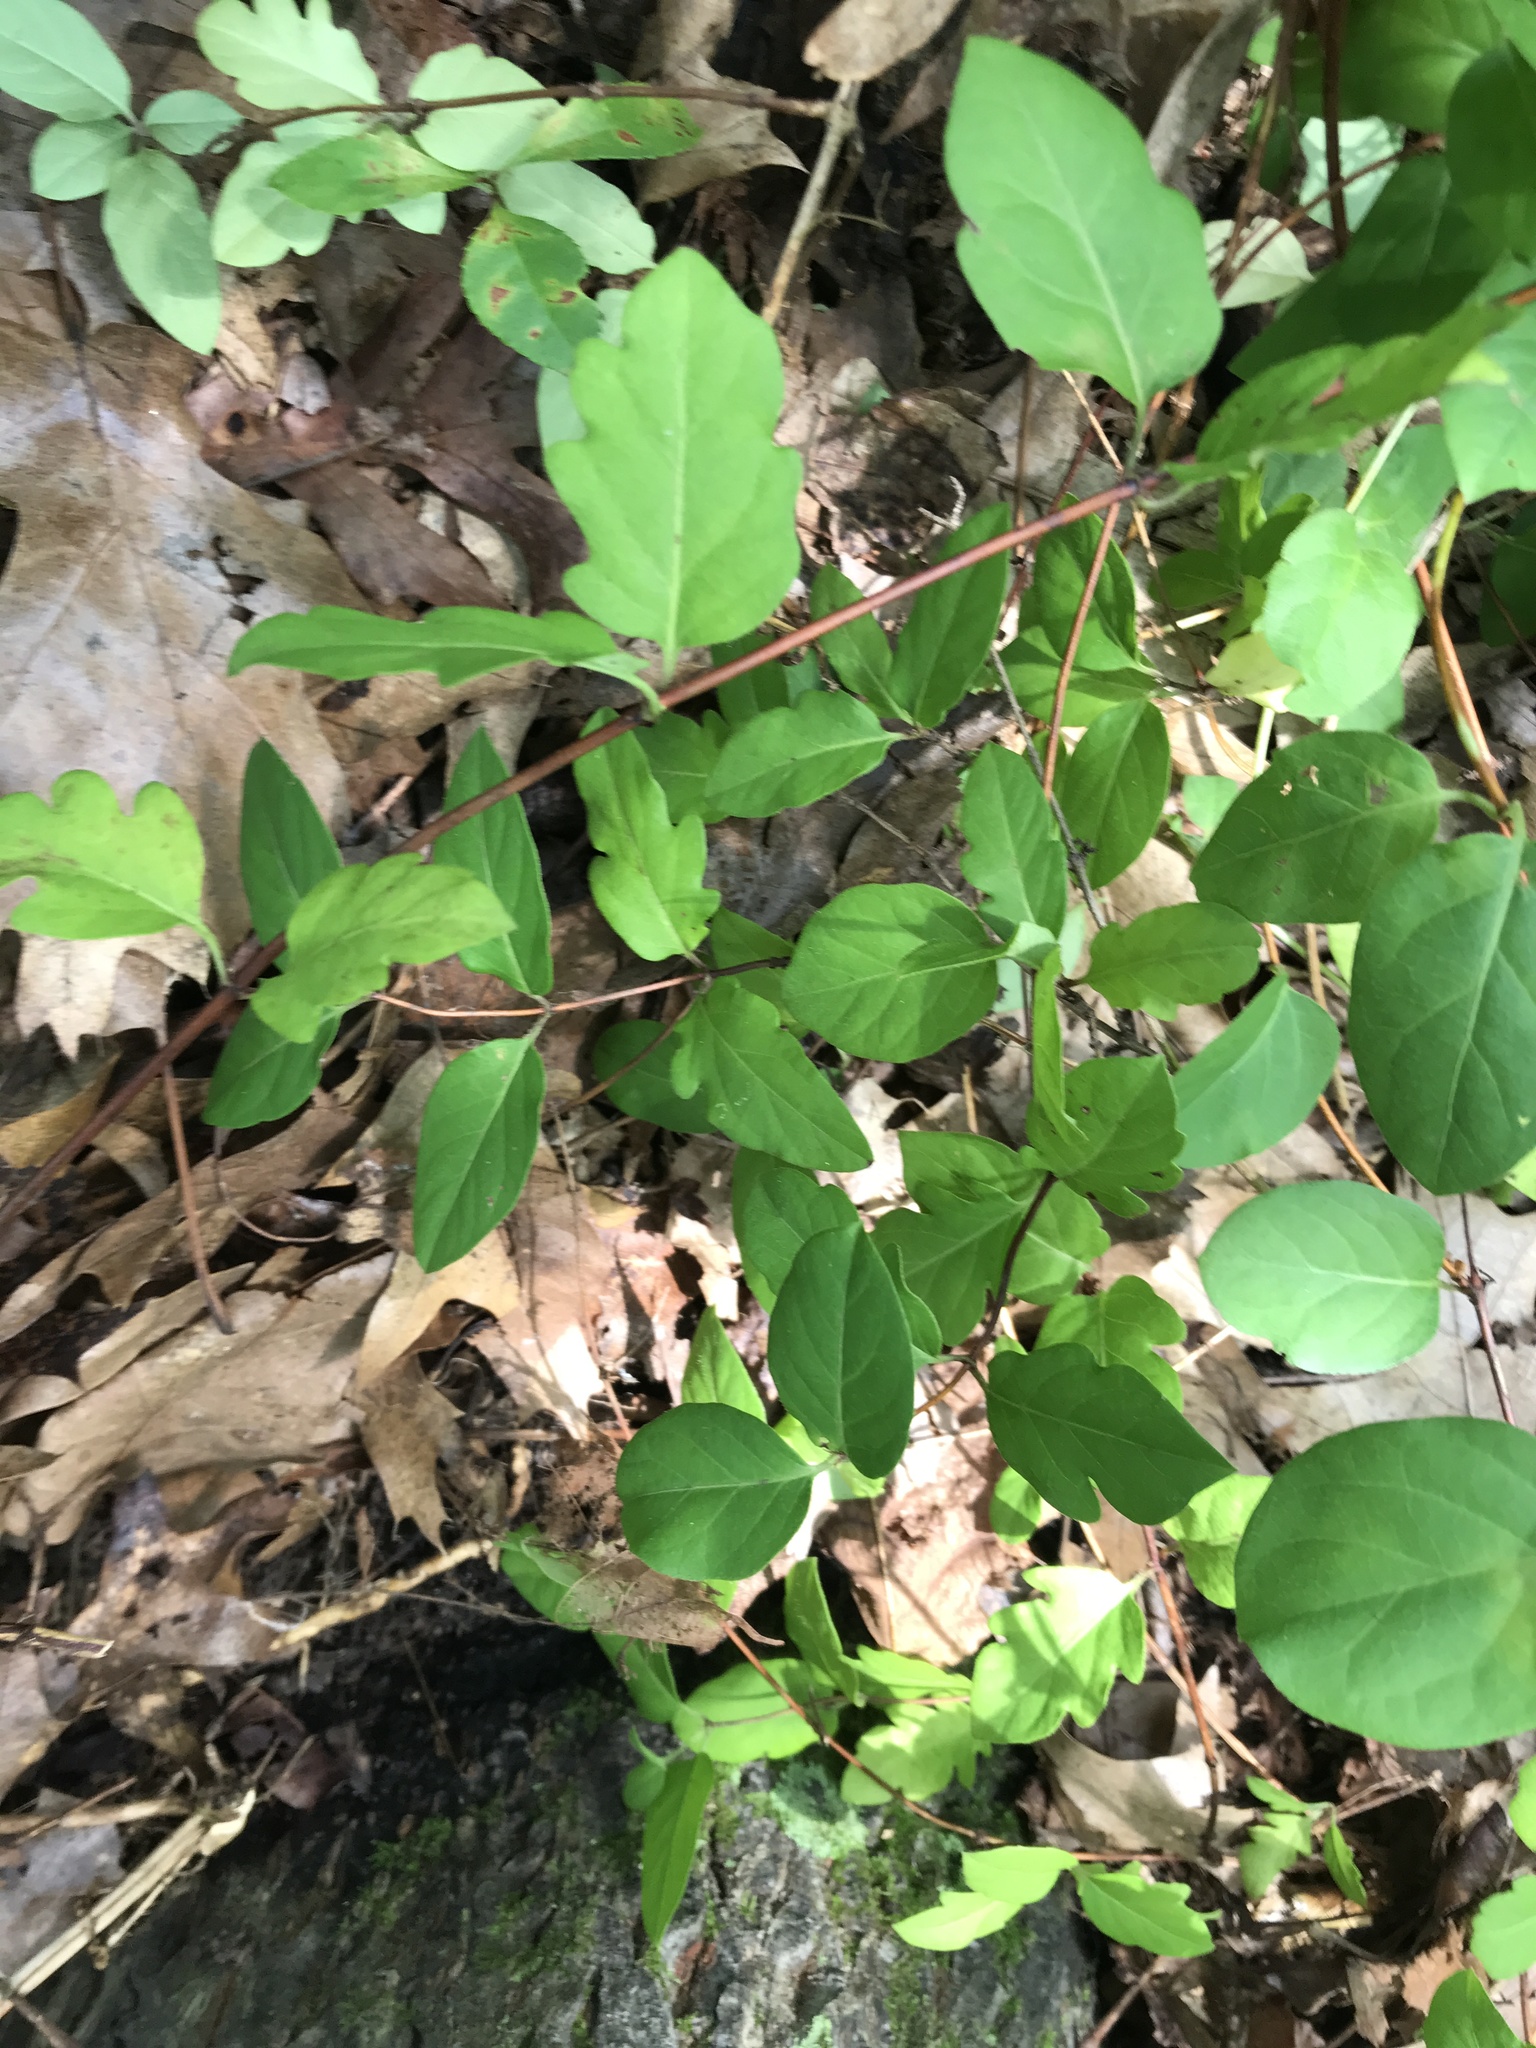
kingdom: Plantae
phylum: Tracheophyta
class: Magnoliopsida
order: Dipsacales
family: Caprifoliaceae
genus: Lonicera
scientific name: Lonicera japonica
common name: Japanese honeysuckle
